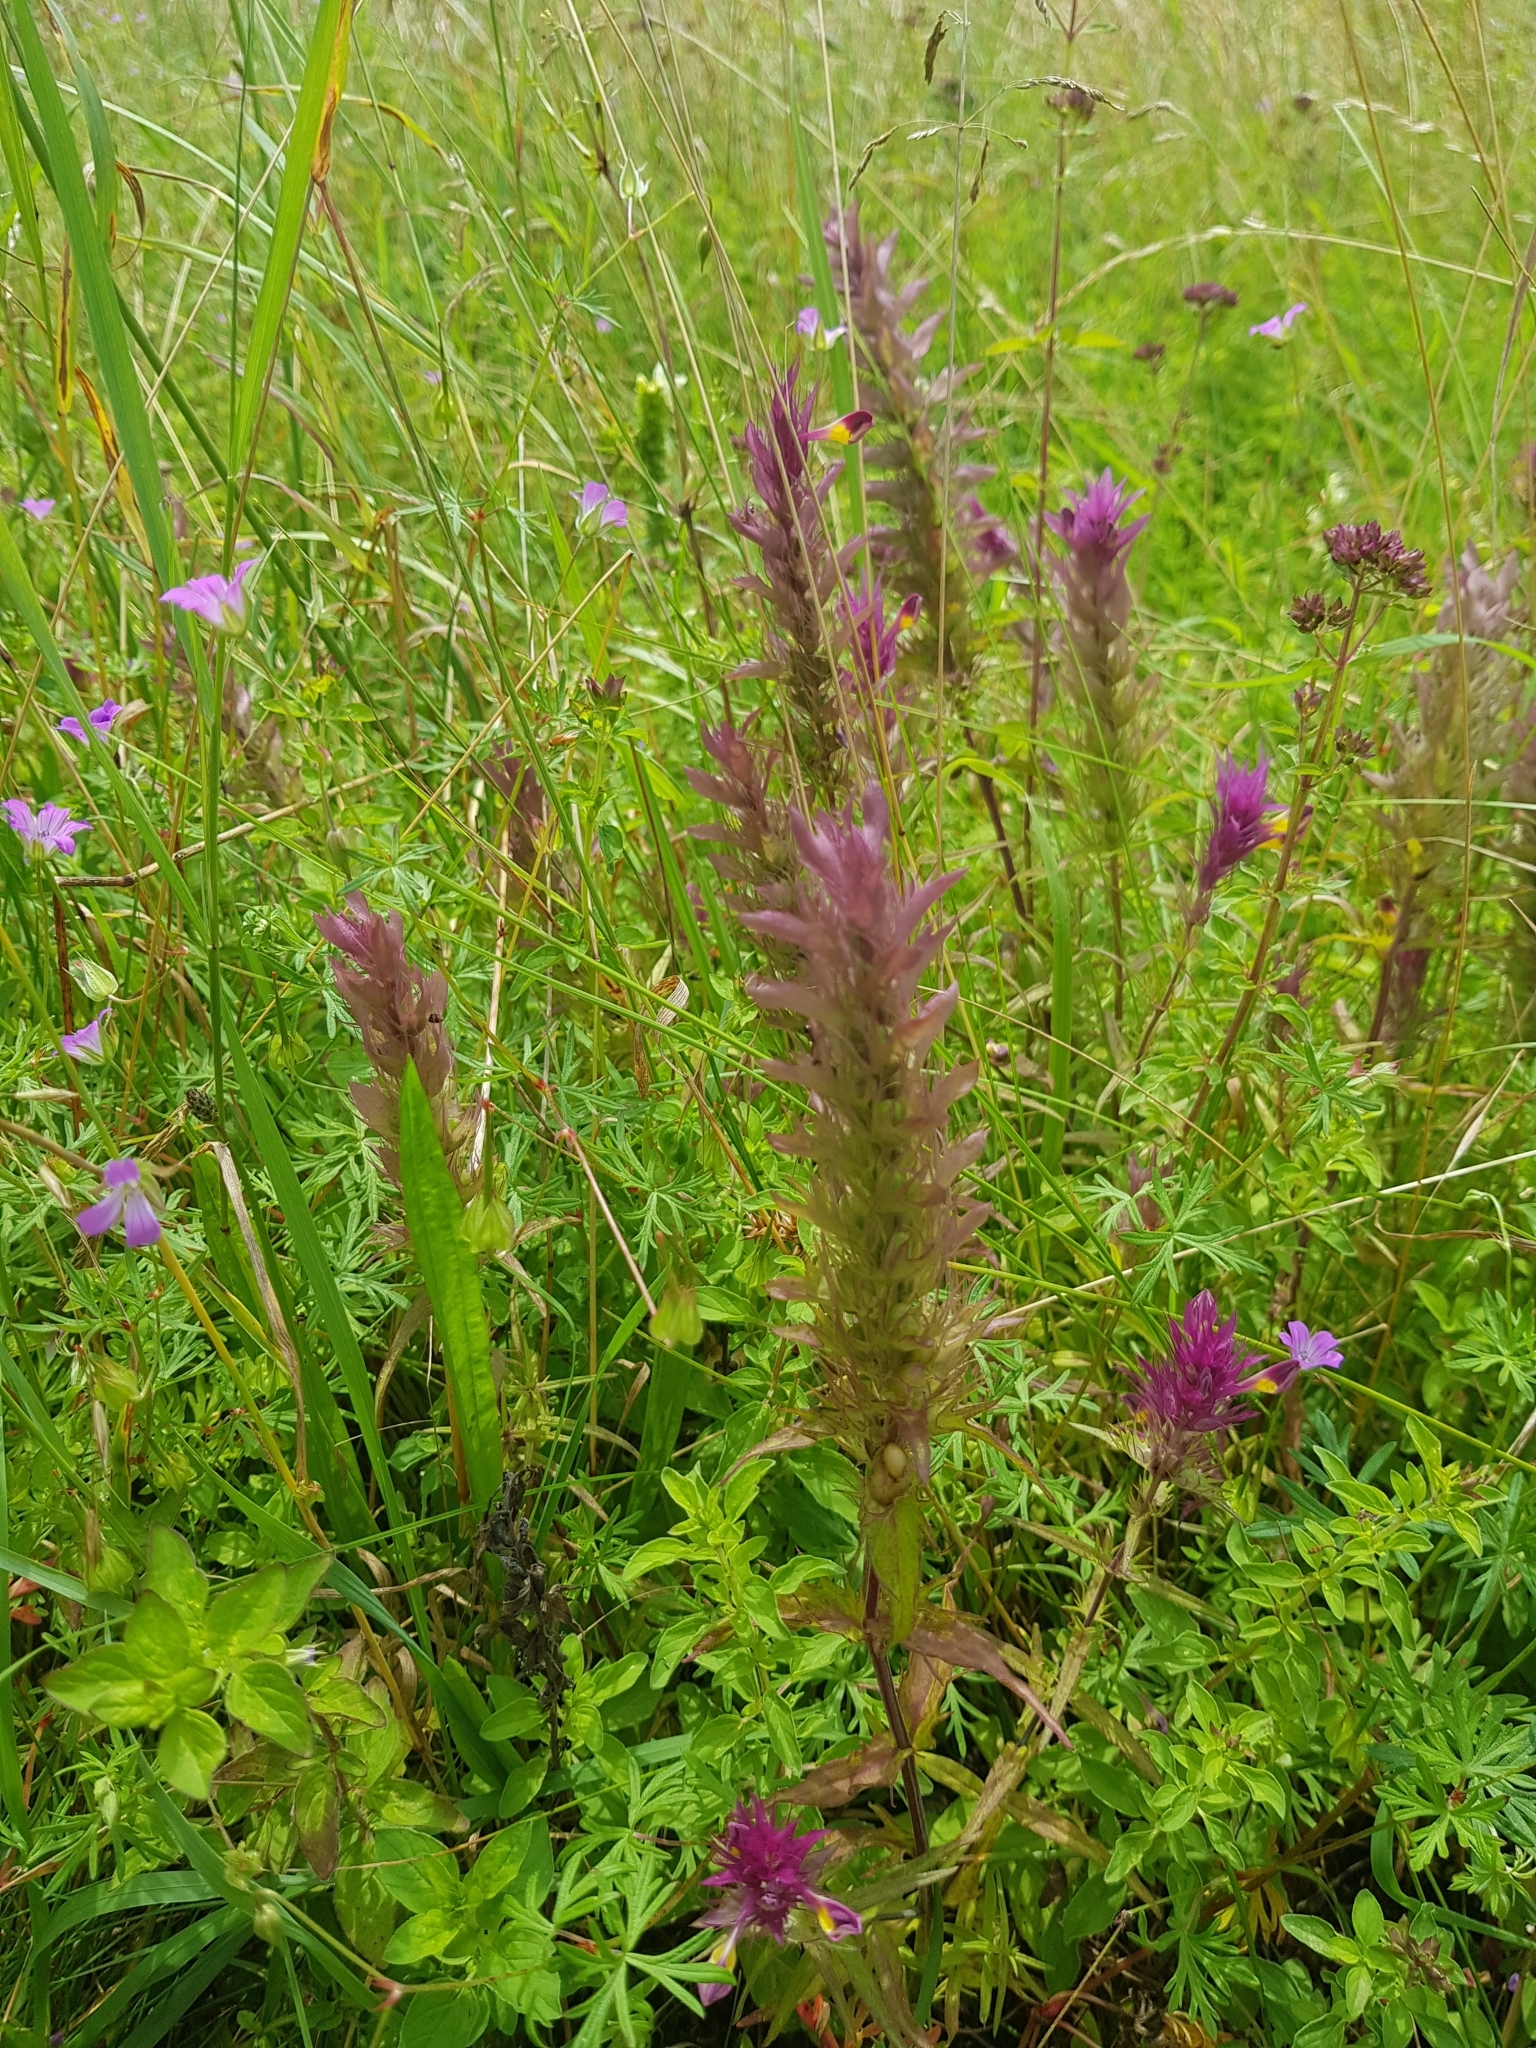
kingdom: Plantae
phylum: Tracheophyta
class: Magnoliopsida
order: Lamiales
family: Orobanchaceae
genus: Melampyrum
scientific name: Melampyrum arvense
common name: Field cow-wheat
